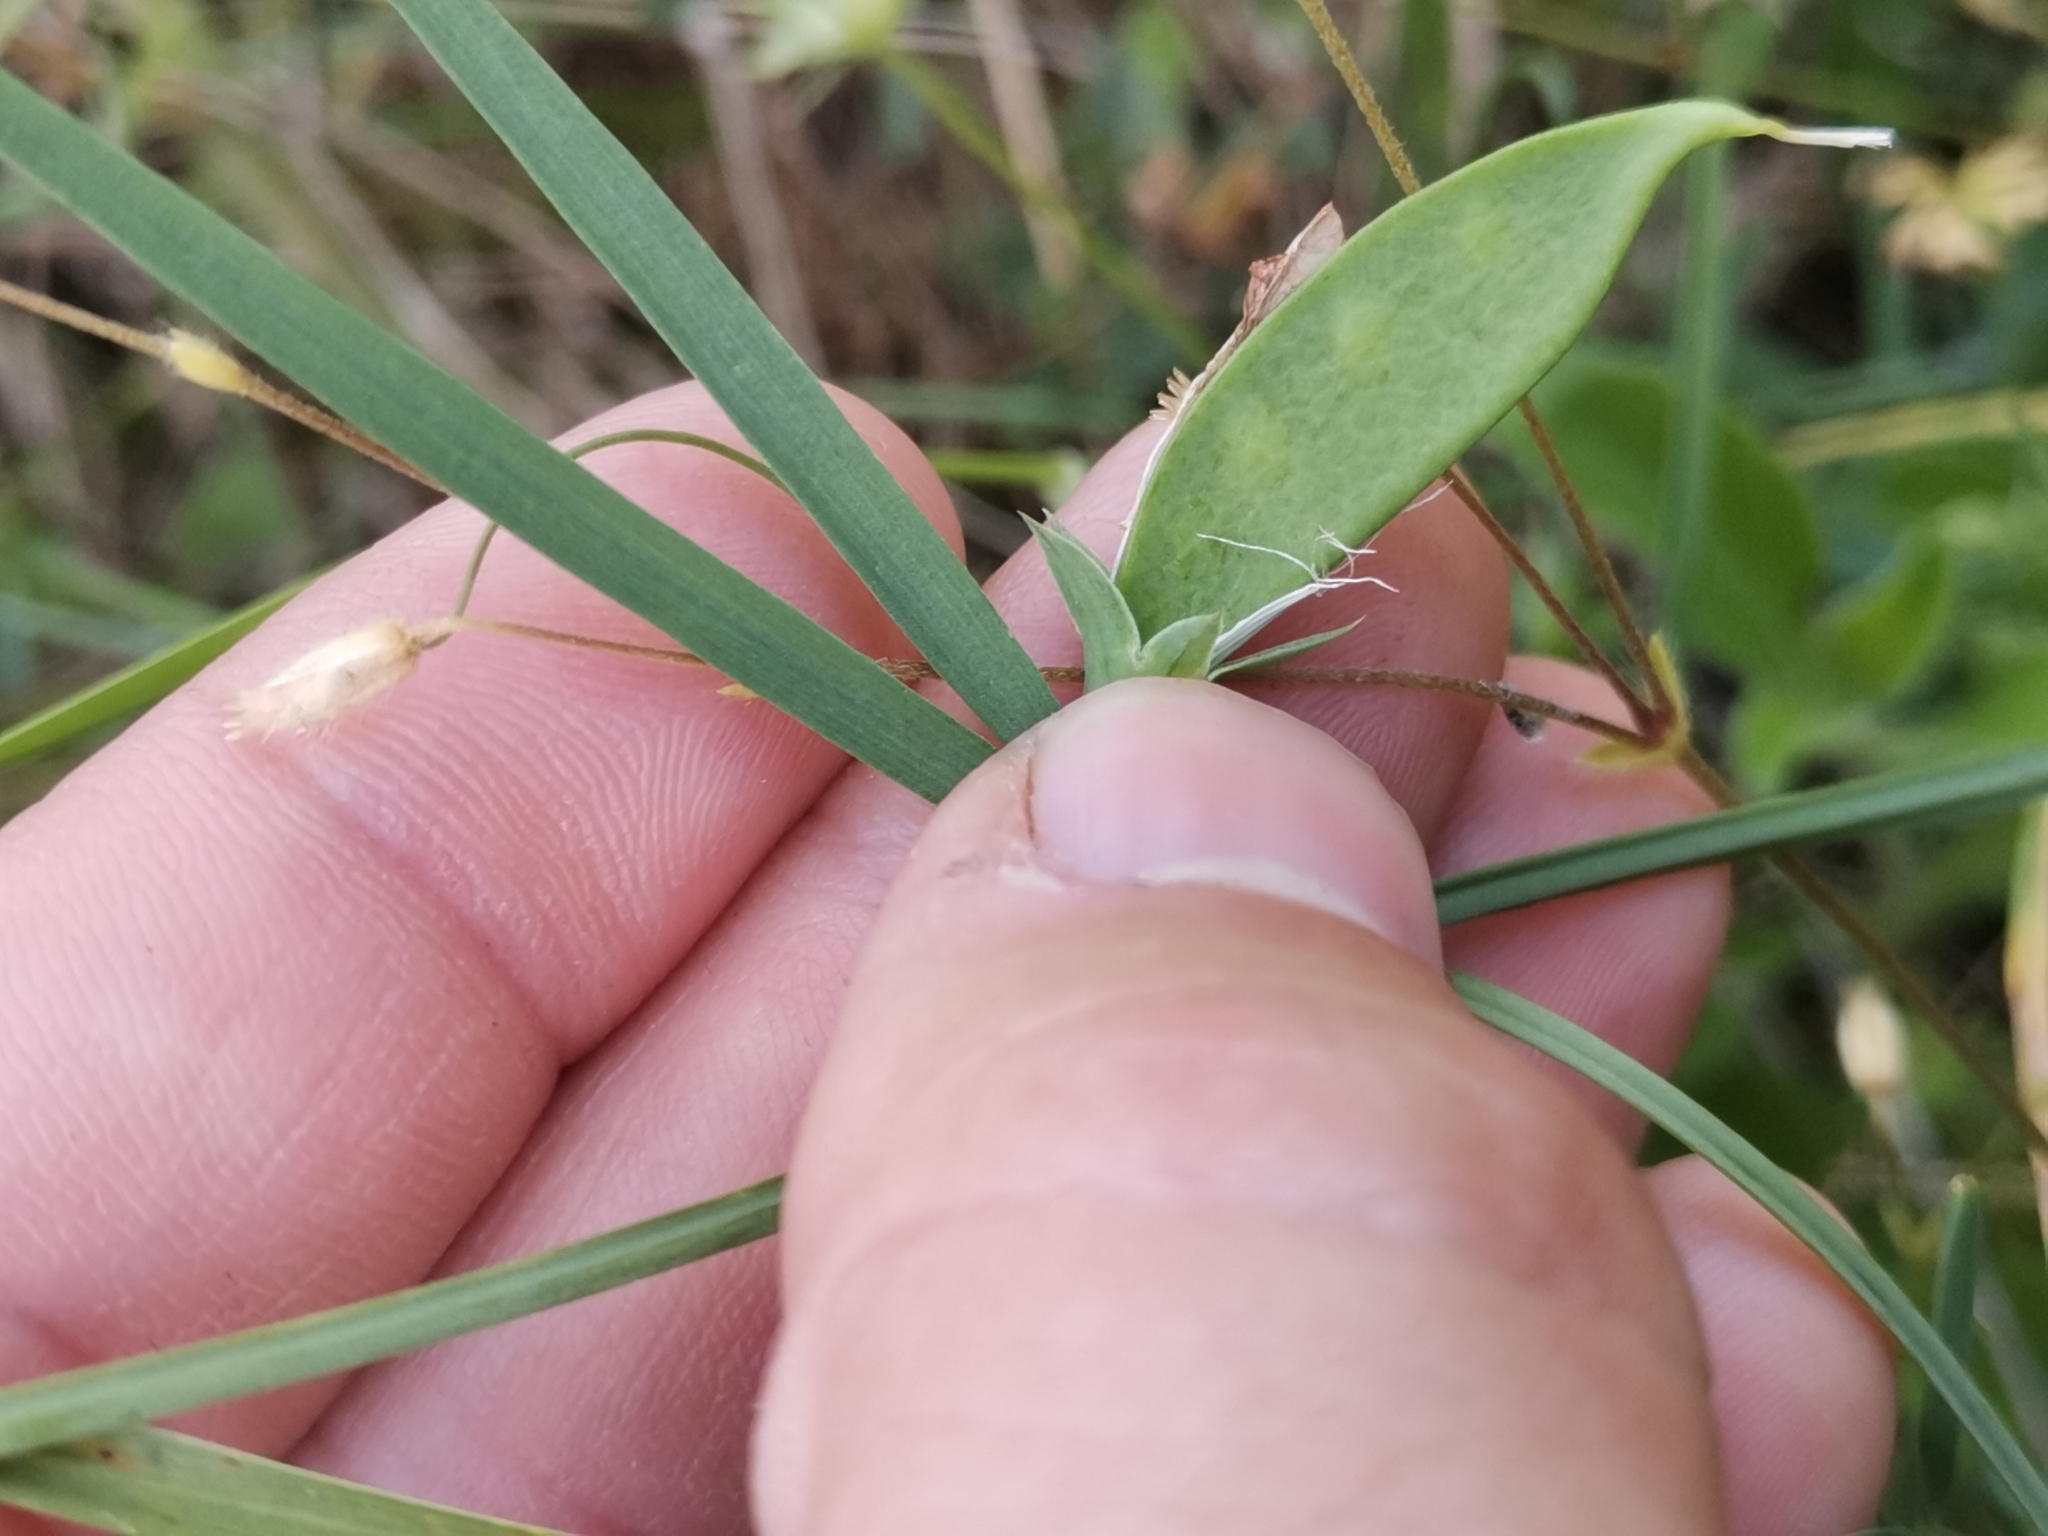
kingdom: Plantae
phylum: Tracheophyta
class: Magnoliopsida
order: Fabales
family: Fabaceae
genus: Lathyrus
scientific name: Lathyrus setifolius
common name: Brown vetchling
